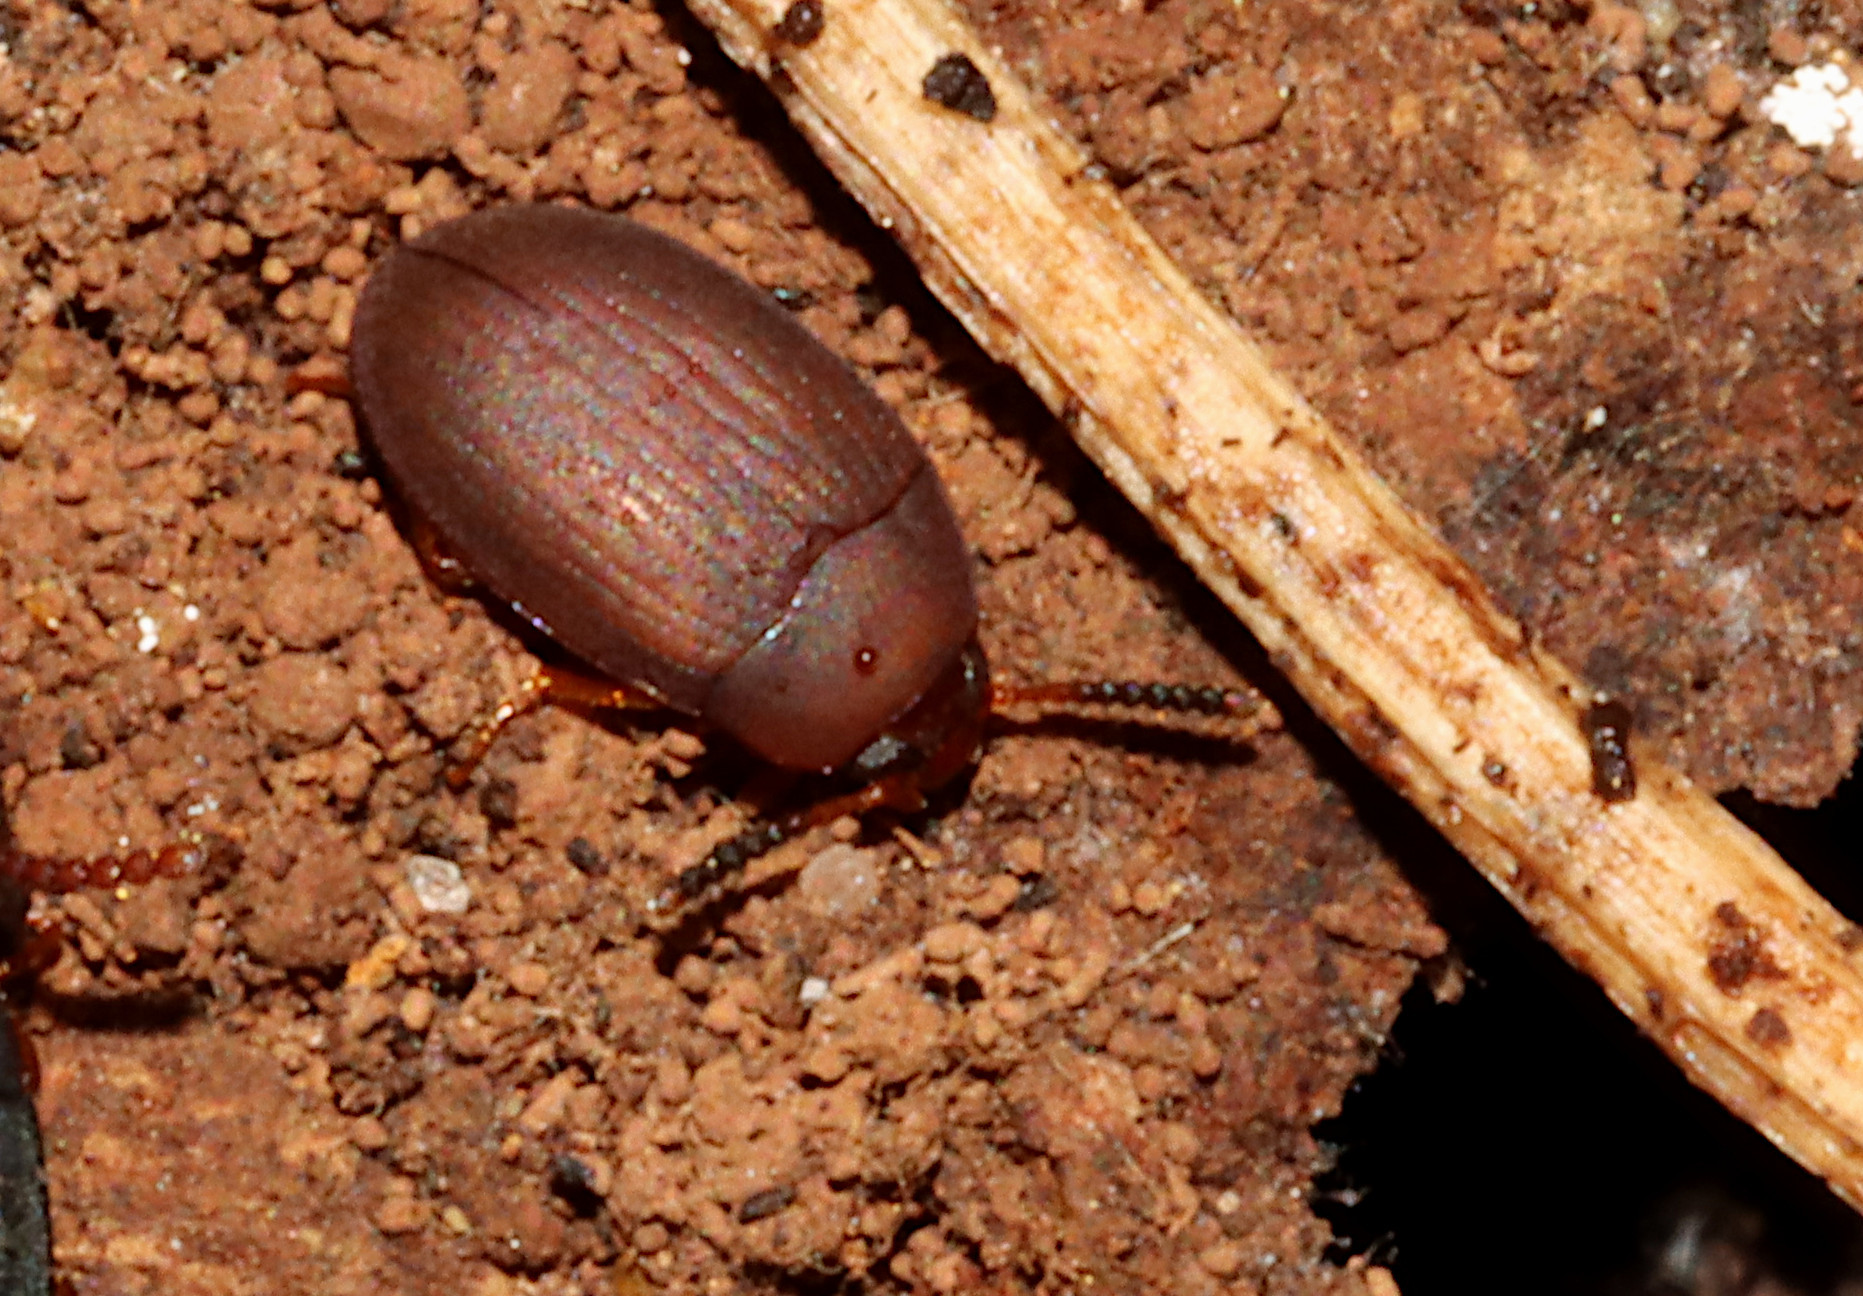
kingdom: Animalia
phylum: Arthropoda
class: Insecta
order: Coleoptera
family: Tenebrionidae
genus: Platydema
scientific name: Platydema erythrocera
